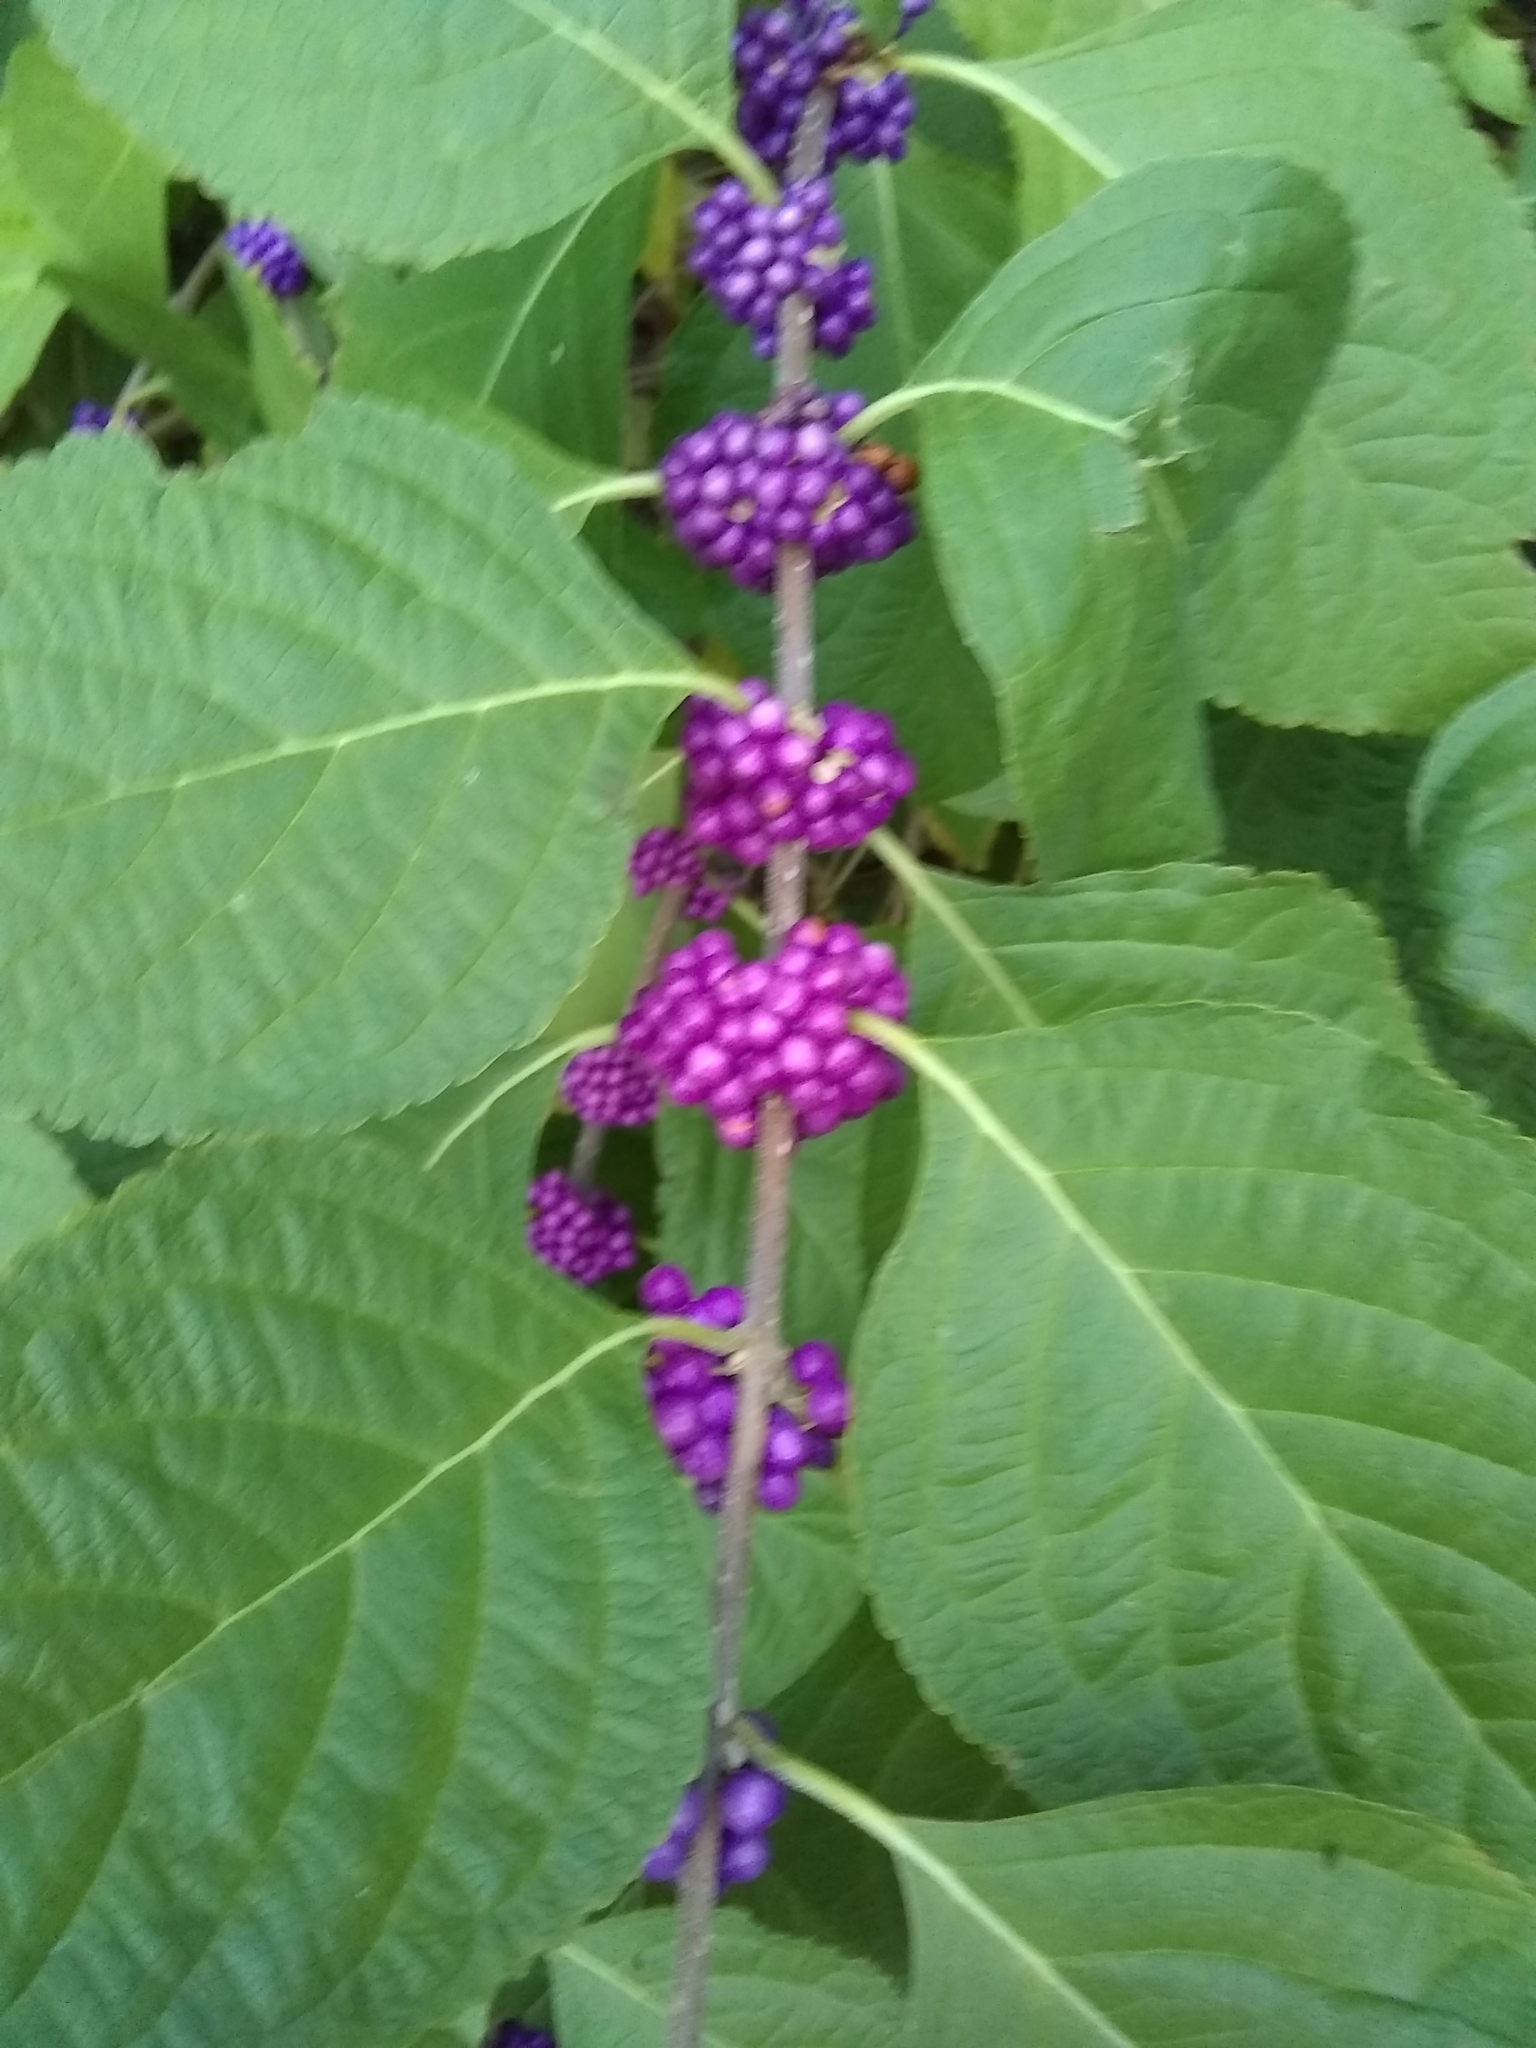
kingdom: Plantae
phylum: Tracheophyta
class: Magnoliopsida
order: Lamiales
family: Lamiaceae
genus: Callicarpa
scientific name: Callicarpa americana
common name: American beautyberry
